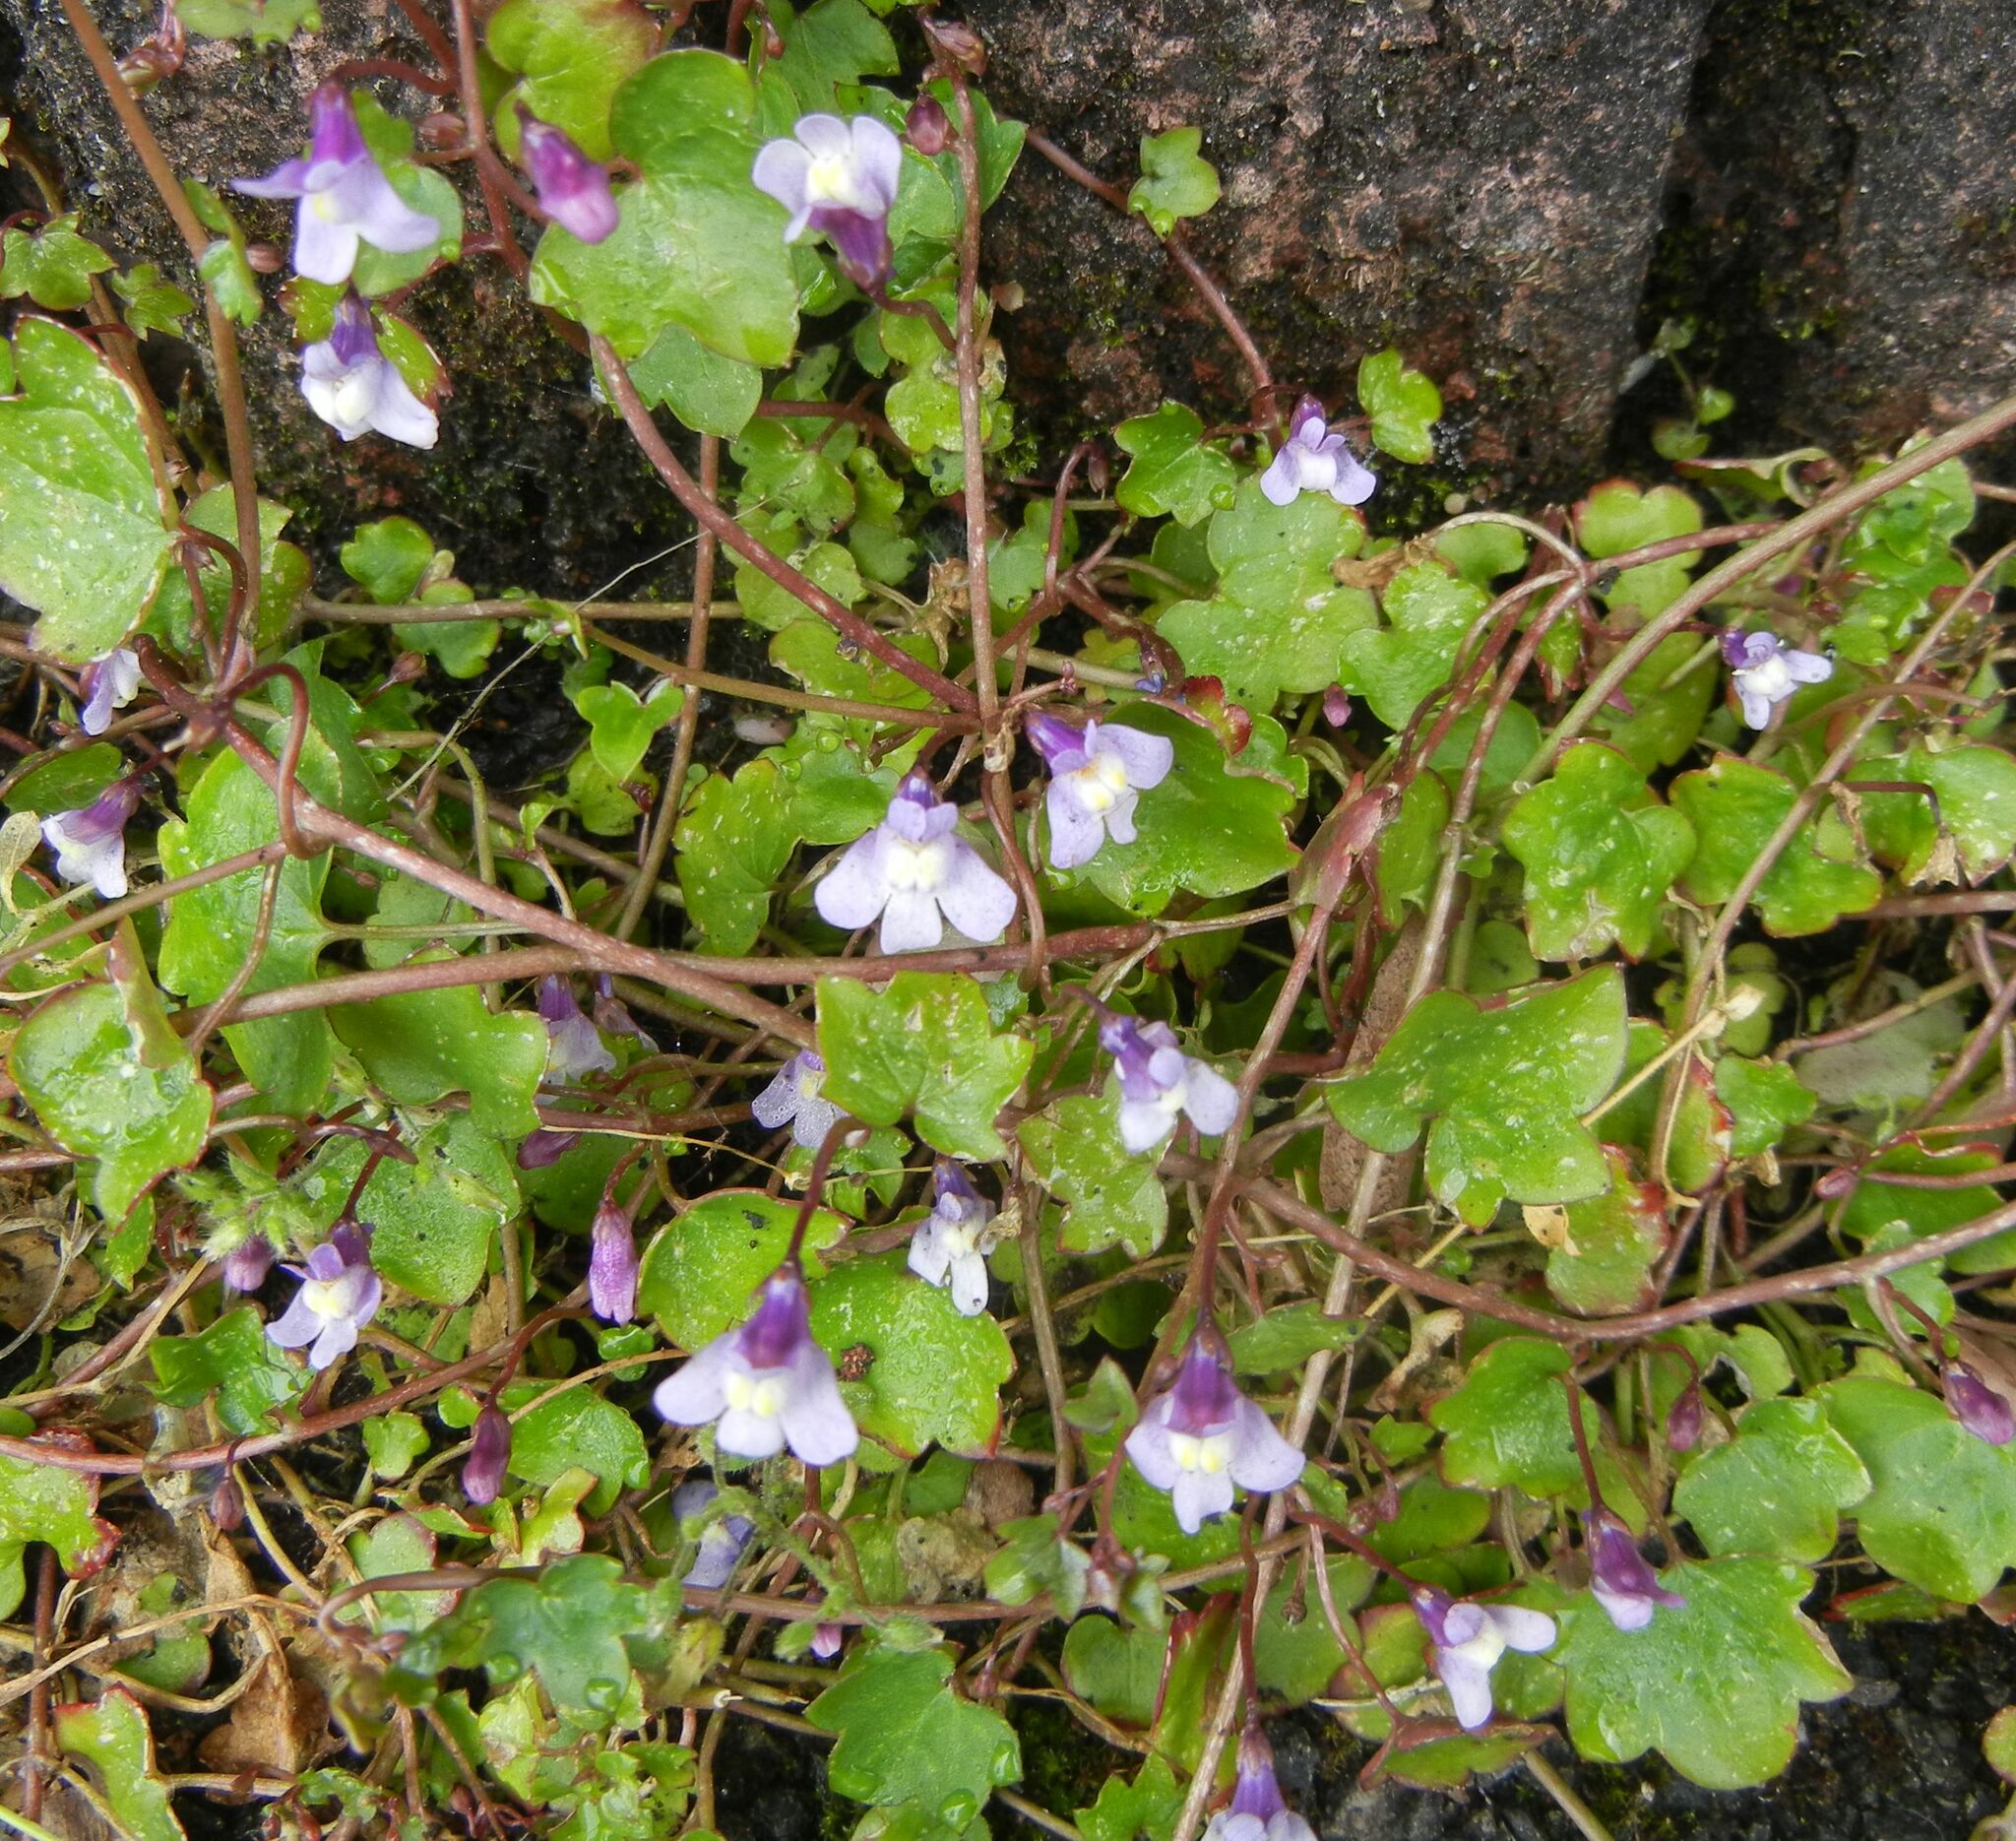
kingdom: Plantae
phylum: Tracheophyta
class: Magnoliopsida
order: Lamiales
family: Plantaginaceae
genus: Cymbalaria
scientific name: Cymbalaria muralis
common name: Ivy-leaved toadflax
